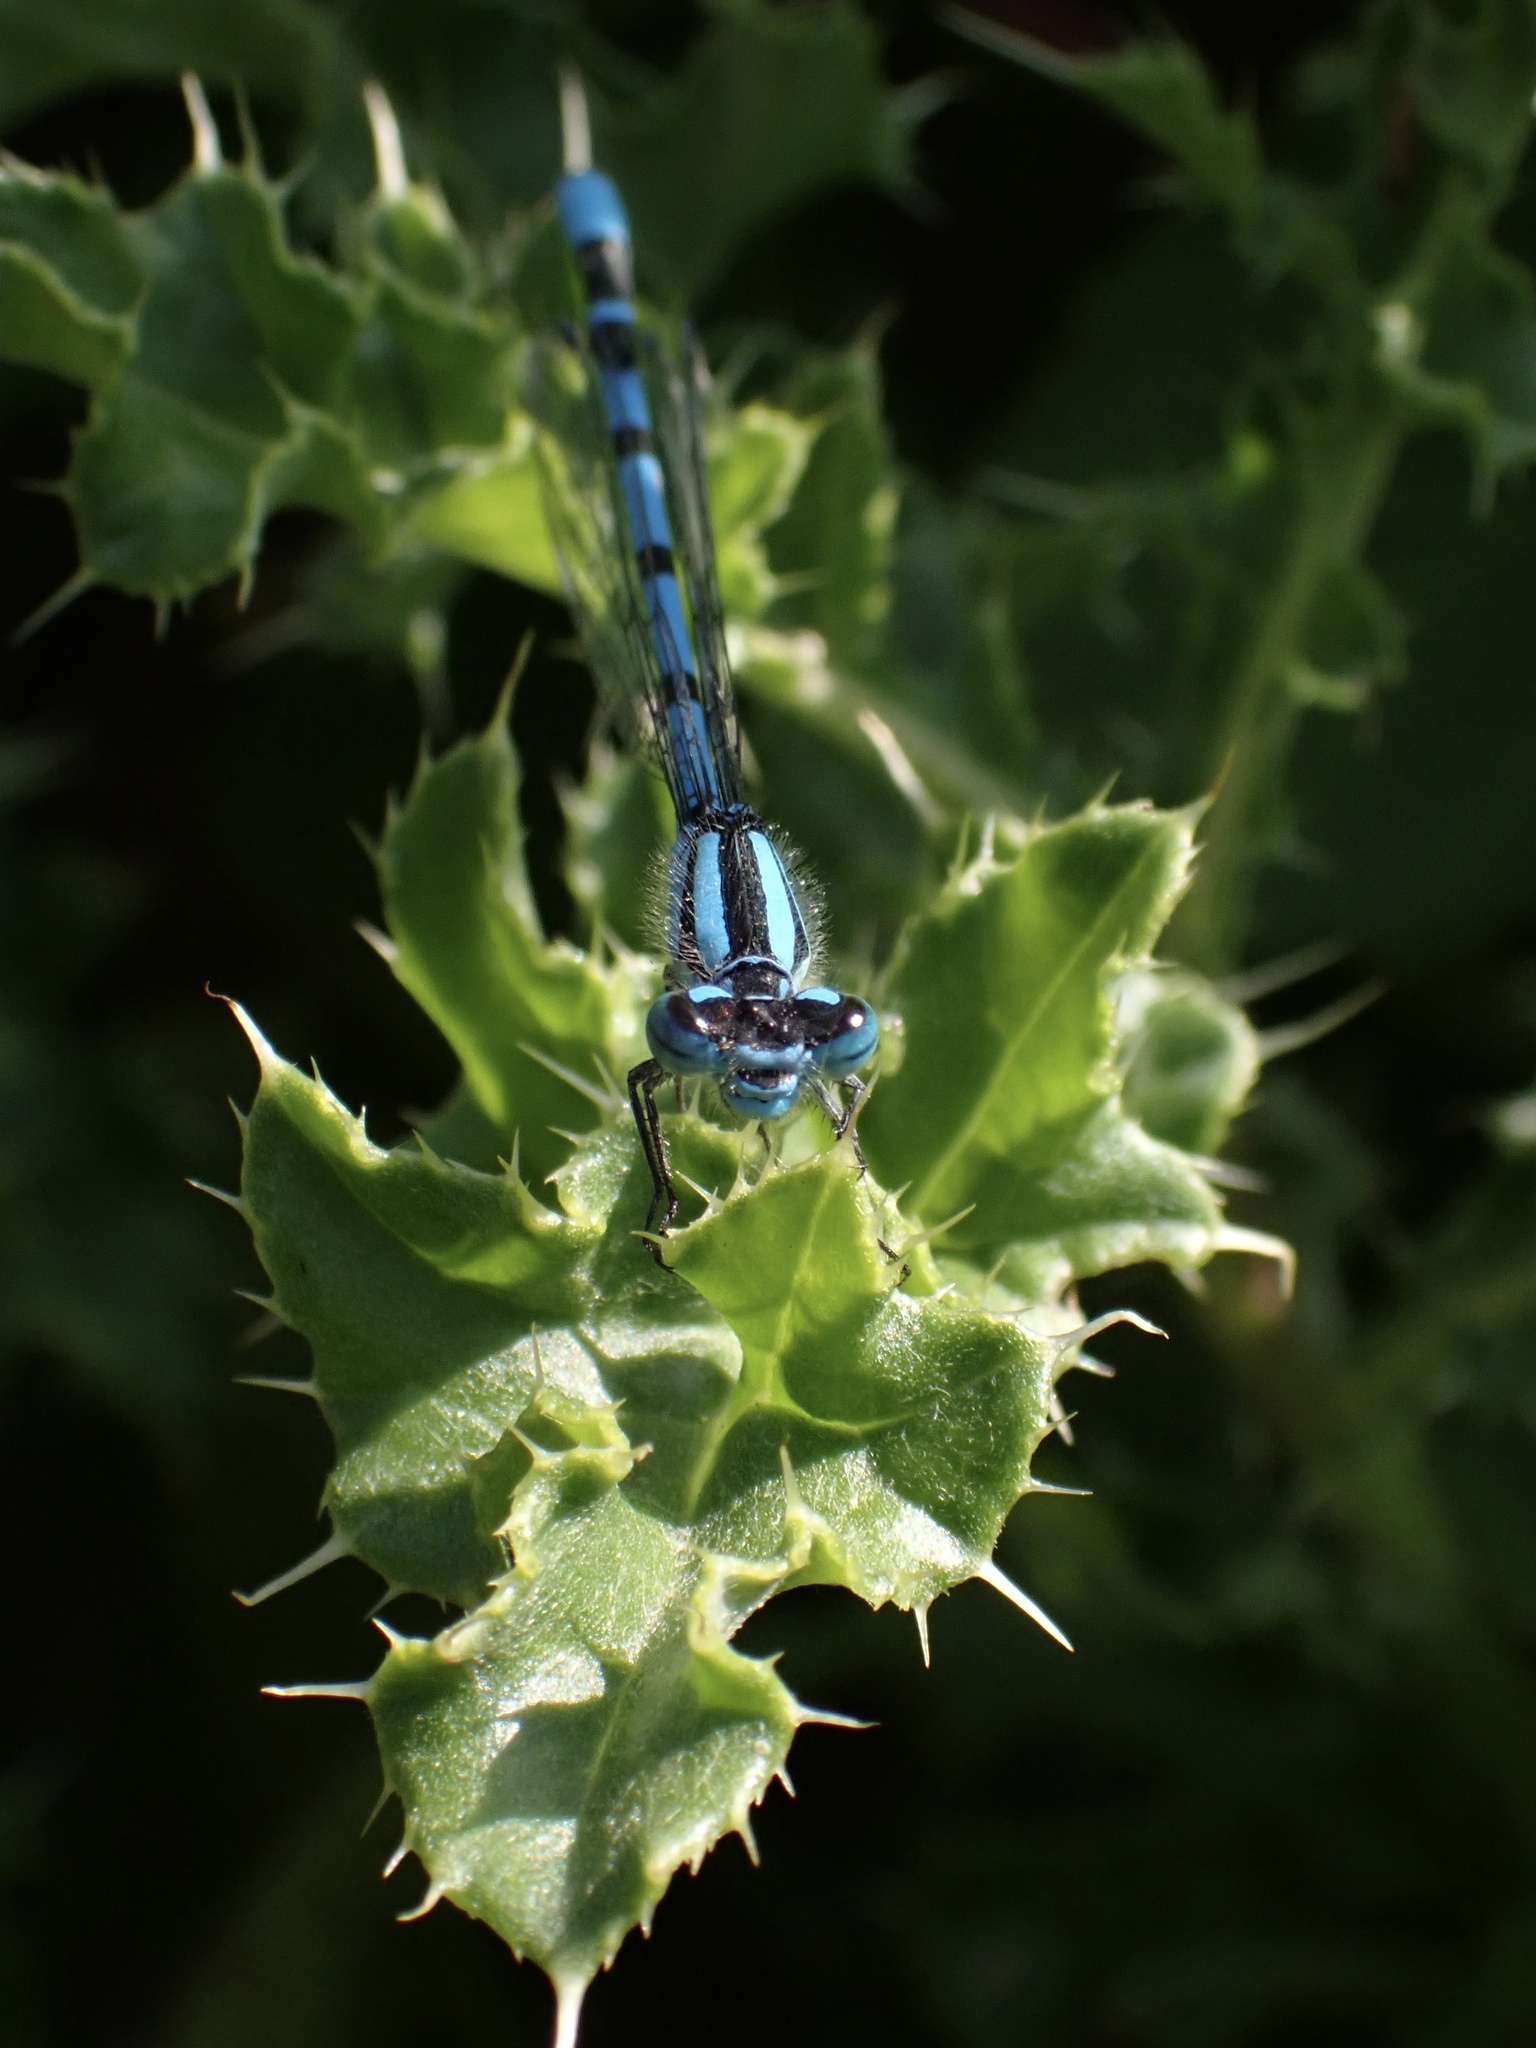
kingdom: Animalia
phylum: Arthropoda
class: Insecta
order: Odonata
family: Coenagrionidae
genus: Enallagma
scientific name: Enallagma cyathigerum
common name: Common blue damselfly
